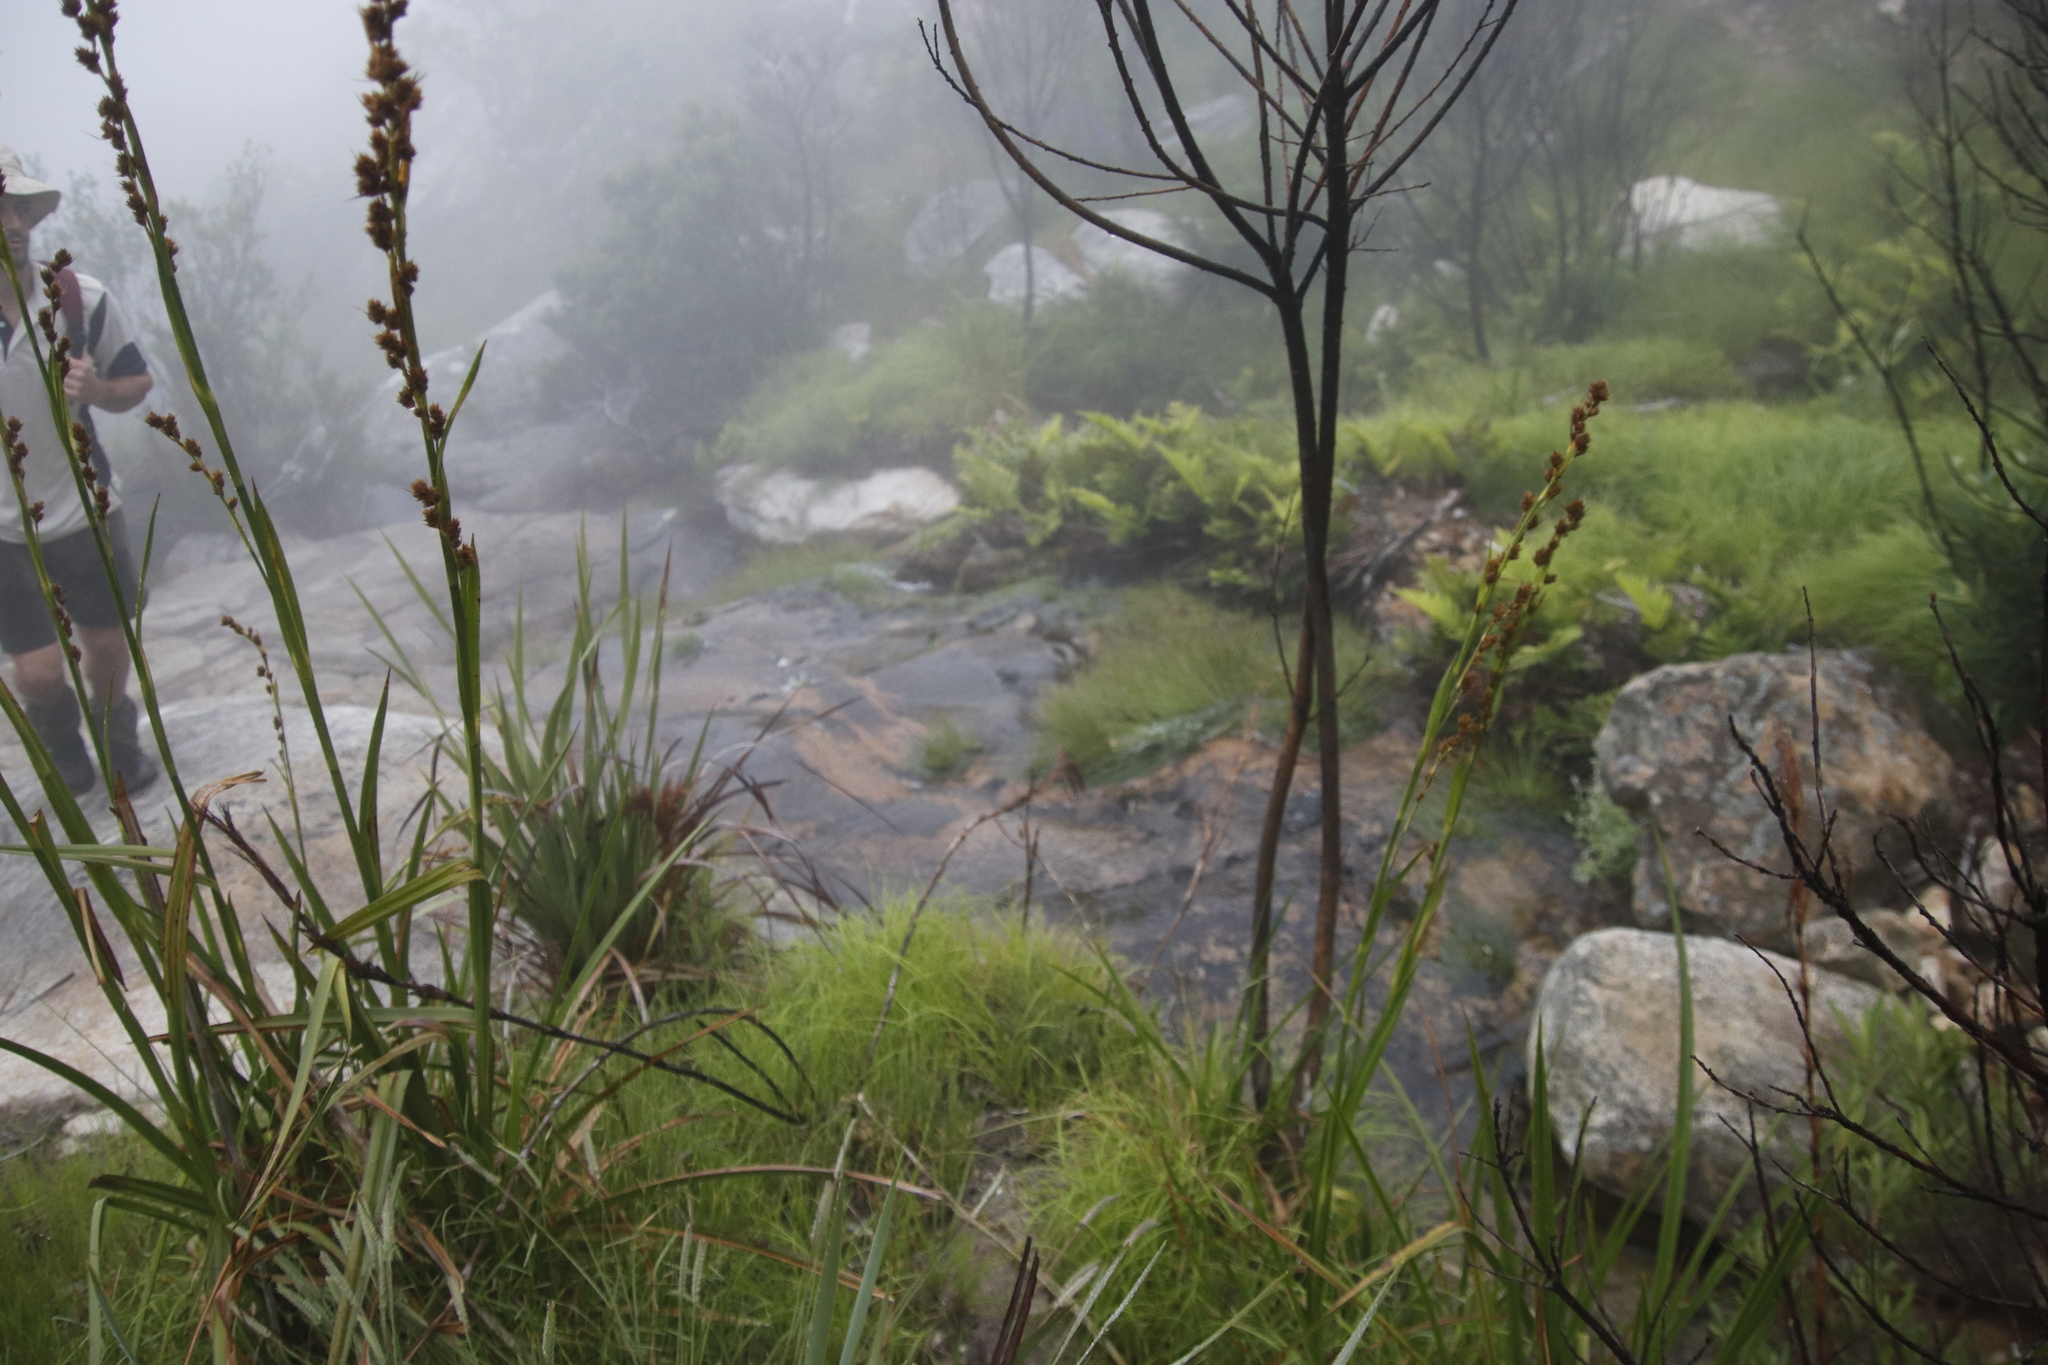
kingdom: Plantae
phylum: Tracheophyta
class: Polypodiopsida
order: Polypodiales
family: Blechnaceae
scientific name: Blechnaceae
